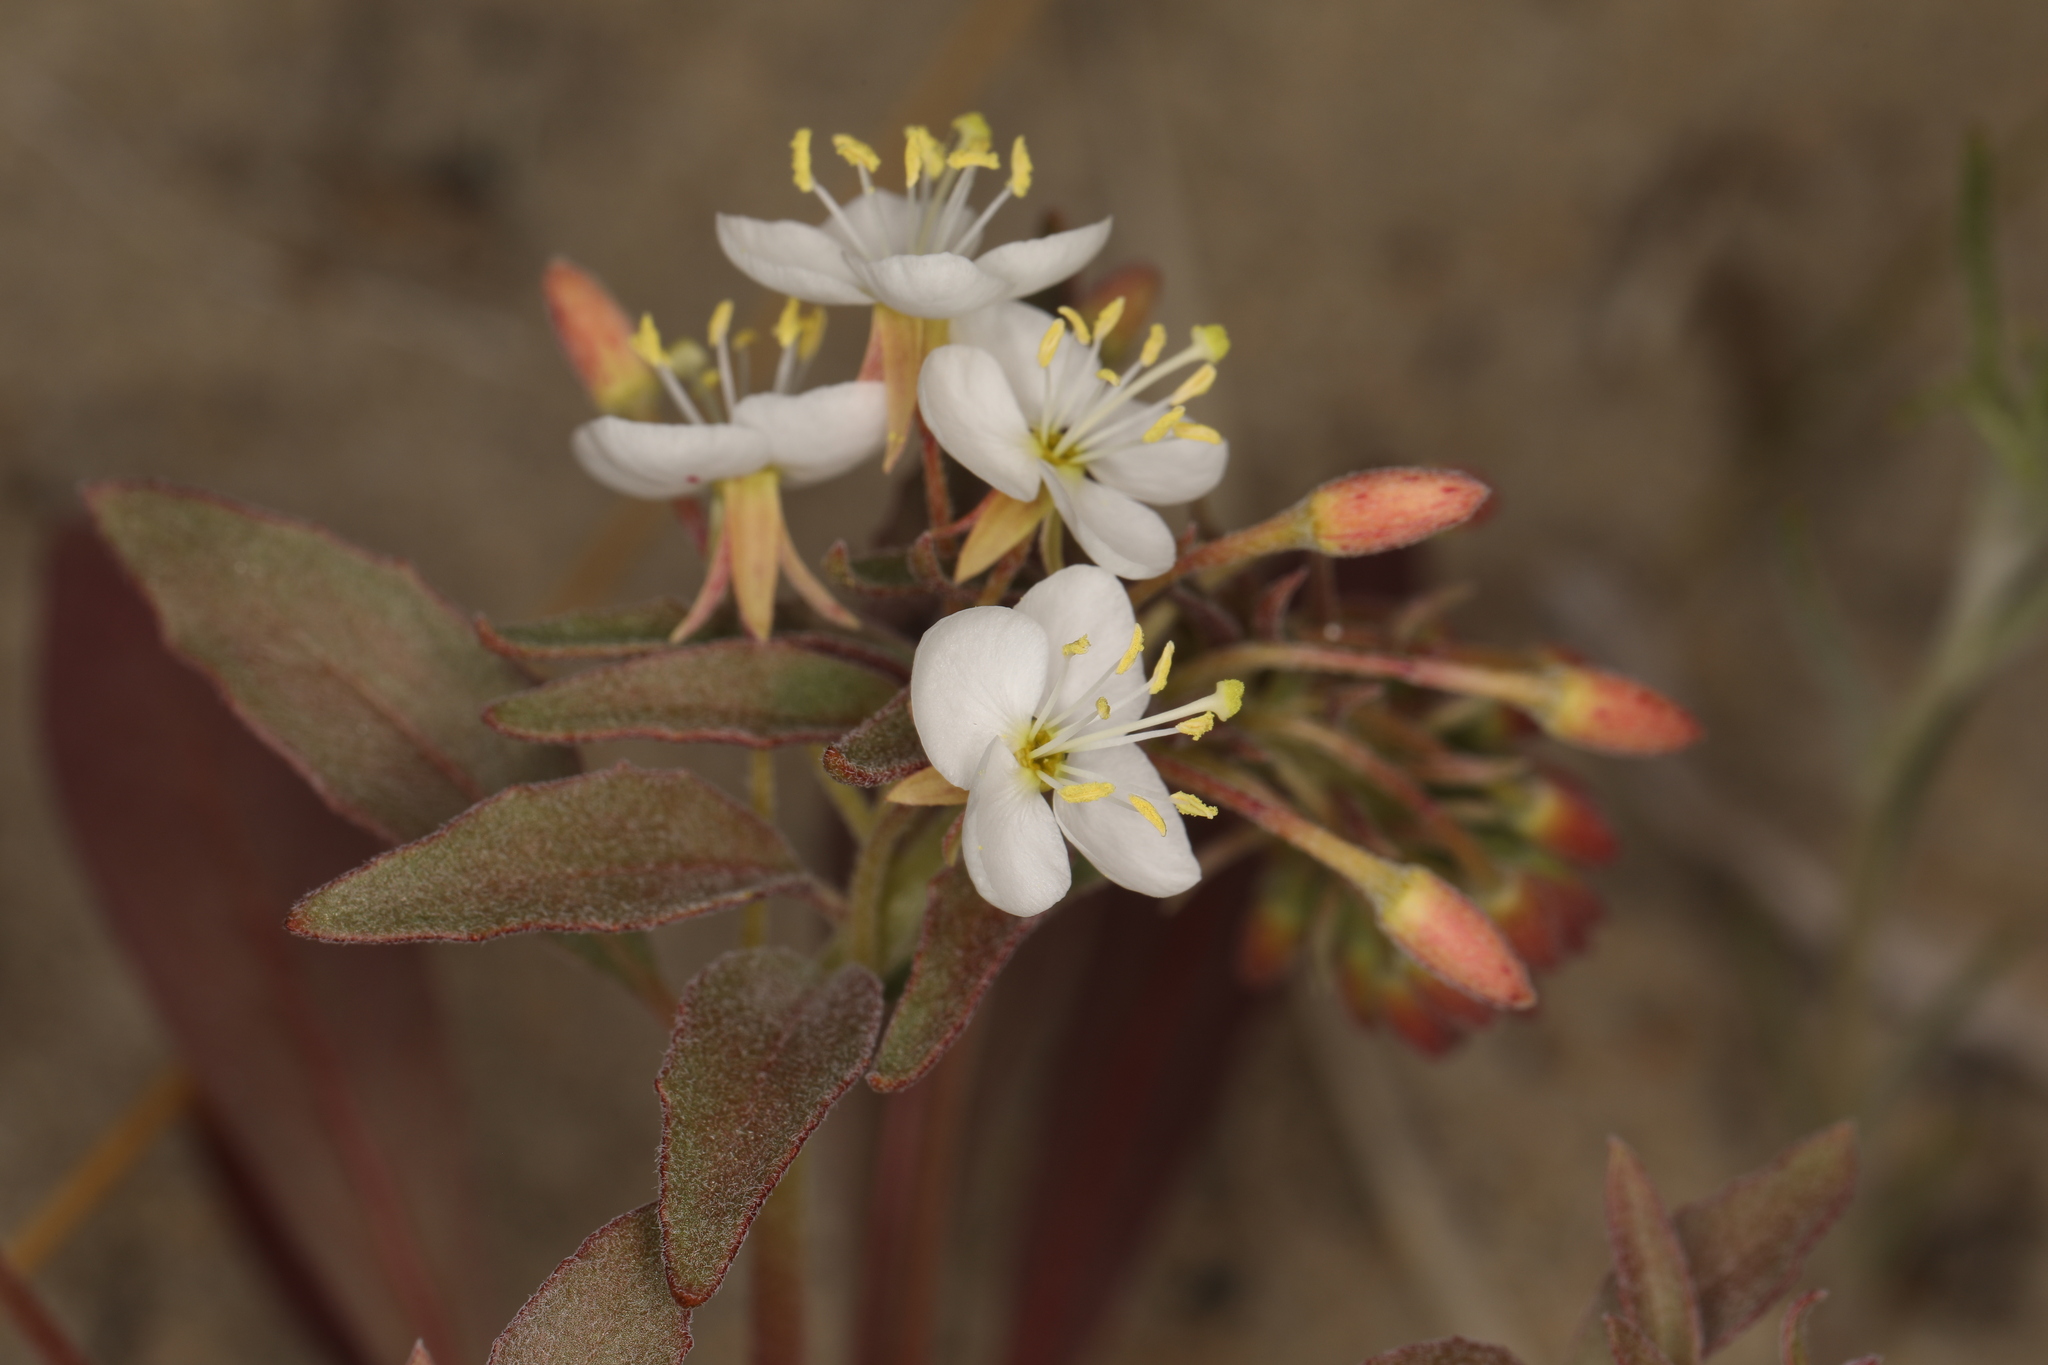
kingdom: Plantae
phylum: Tracheophyta
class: Magnoliopsida
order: Myrtales
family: Onagraceae
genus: Eremothera
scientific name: Eremothera boothii
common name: Booth's evening primrose
